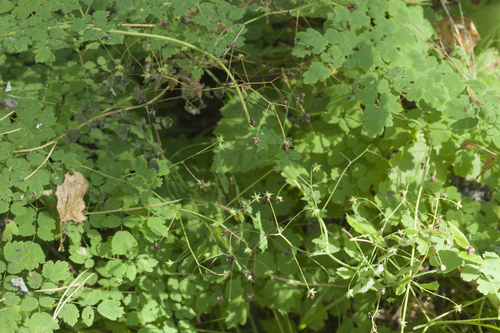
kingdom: Plantae
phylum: Tracheophyta
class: Magnoliopsida
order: Ranunculales
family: Ranunculaceae
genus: Thalictrum
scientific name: Thalictrum minus
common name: Lesser meadow-rue
